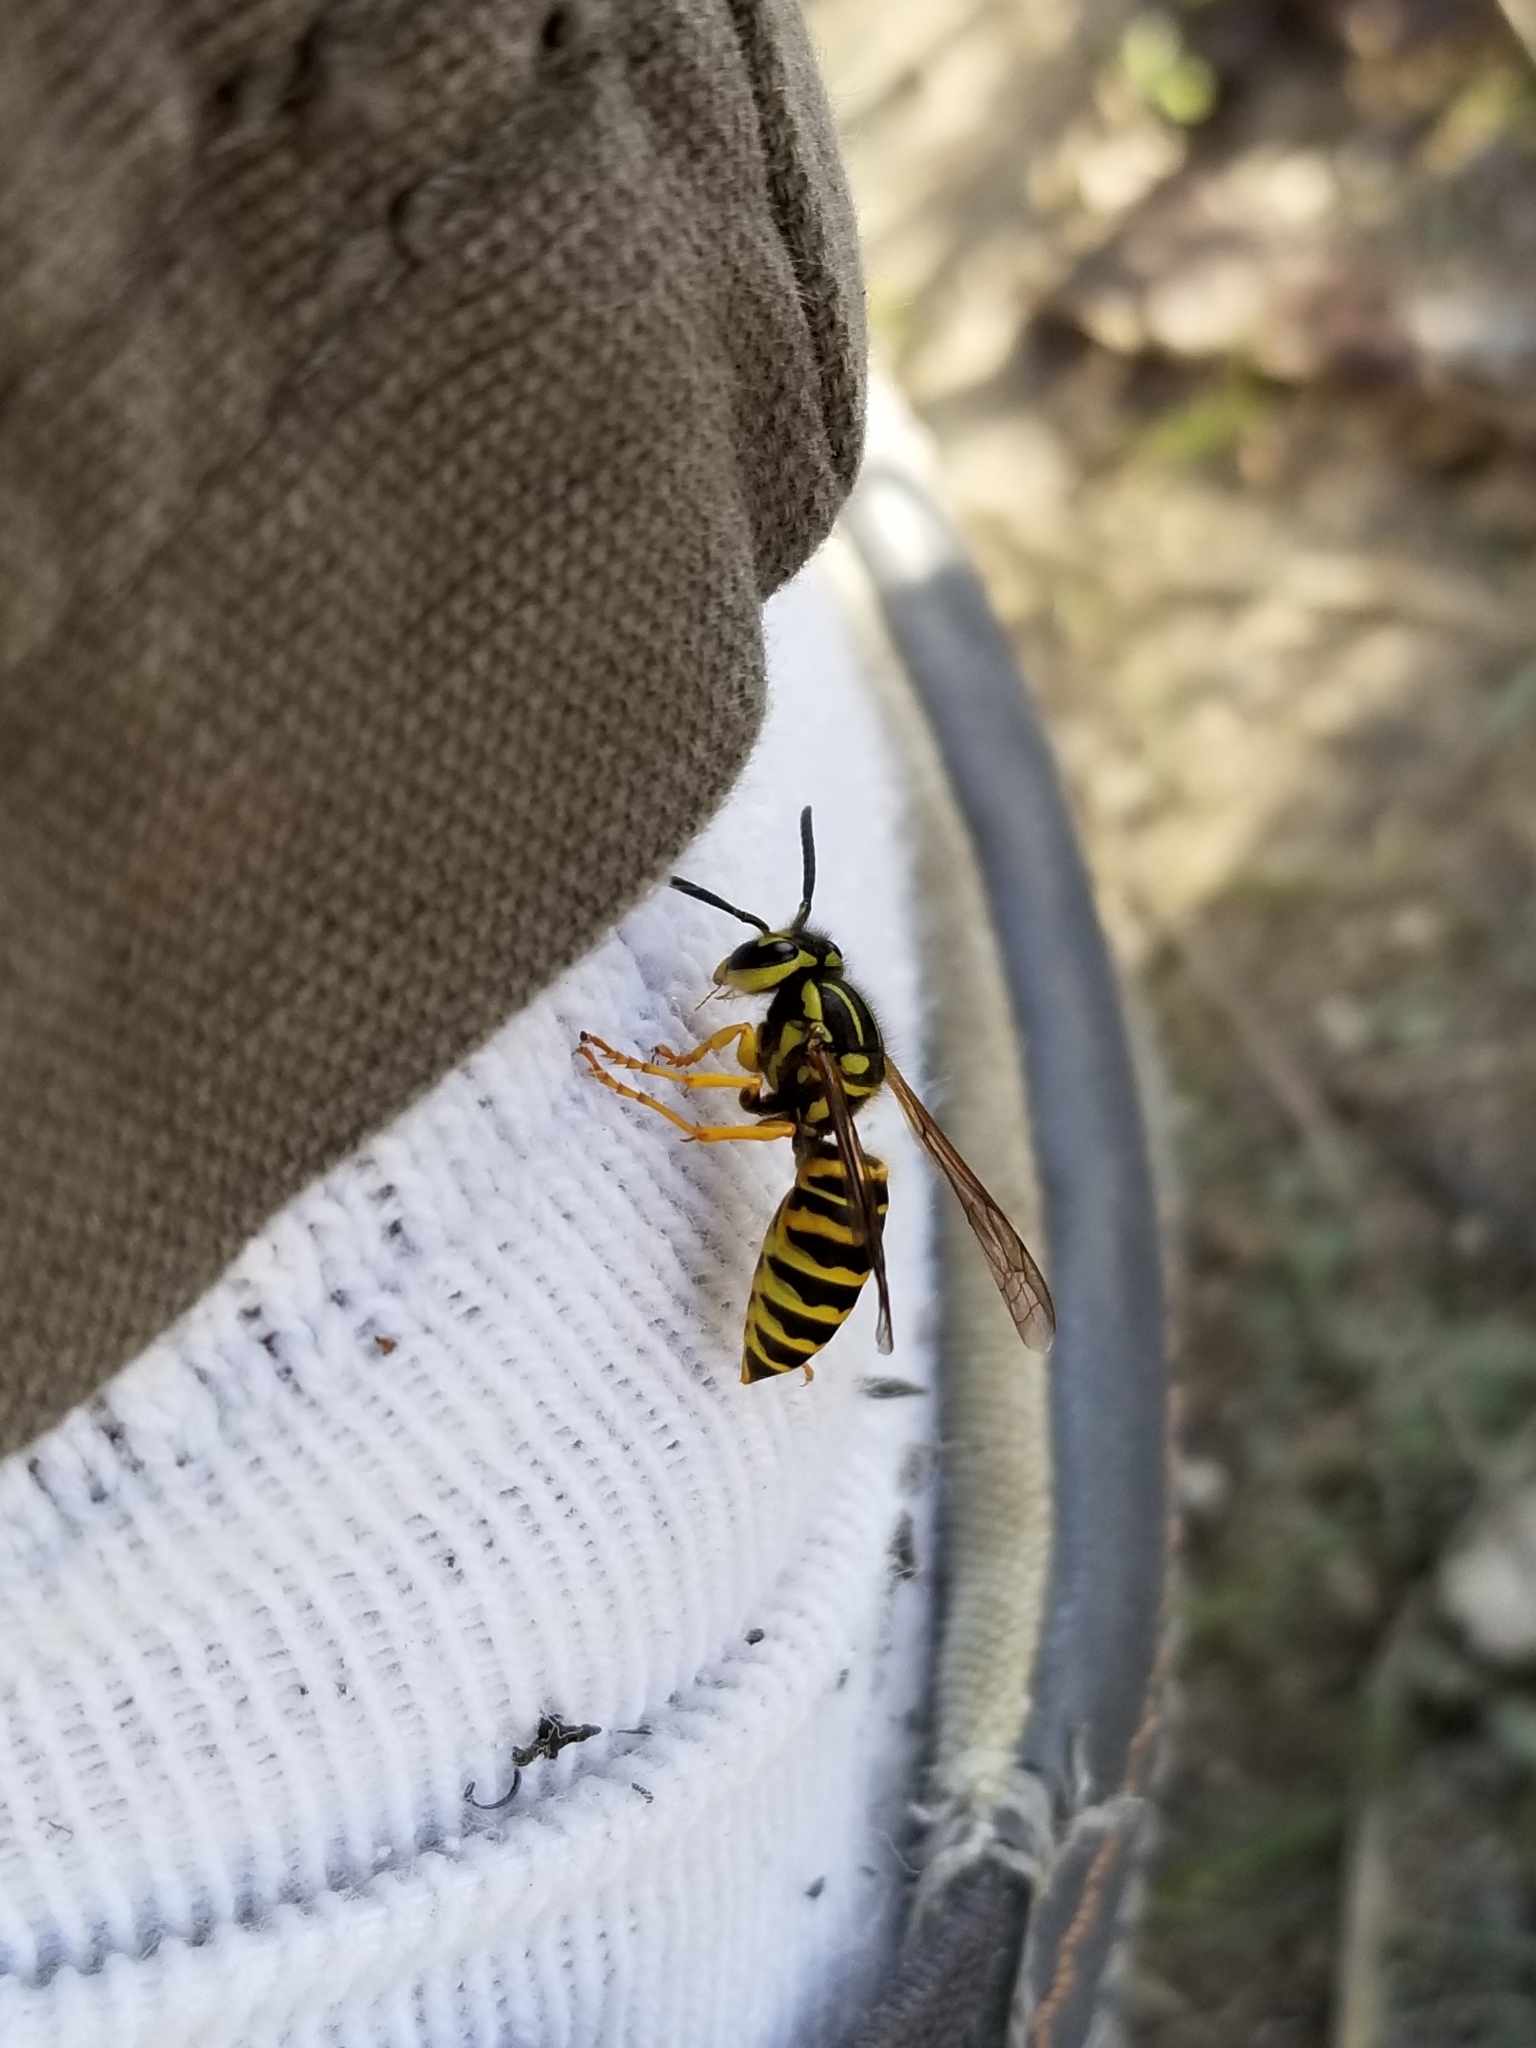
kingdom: Animalia
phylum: Arthropoda
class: Insecta
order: Hymenoptera
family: Vespidae
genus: Vespula
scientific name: Vespula squamosa
